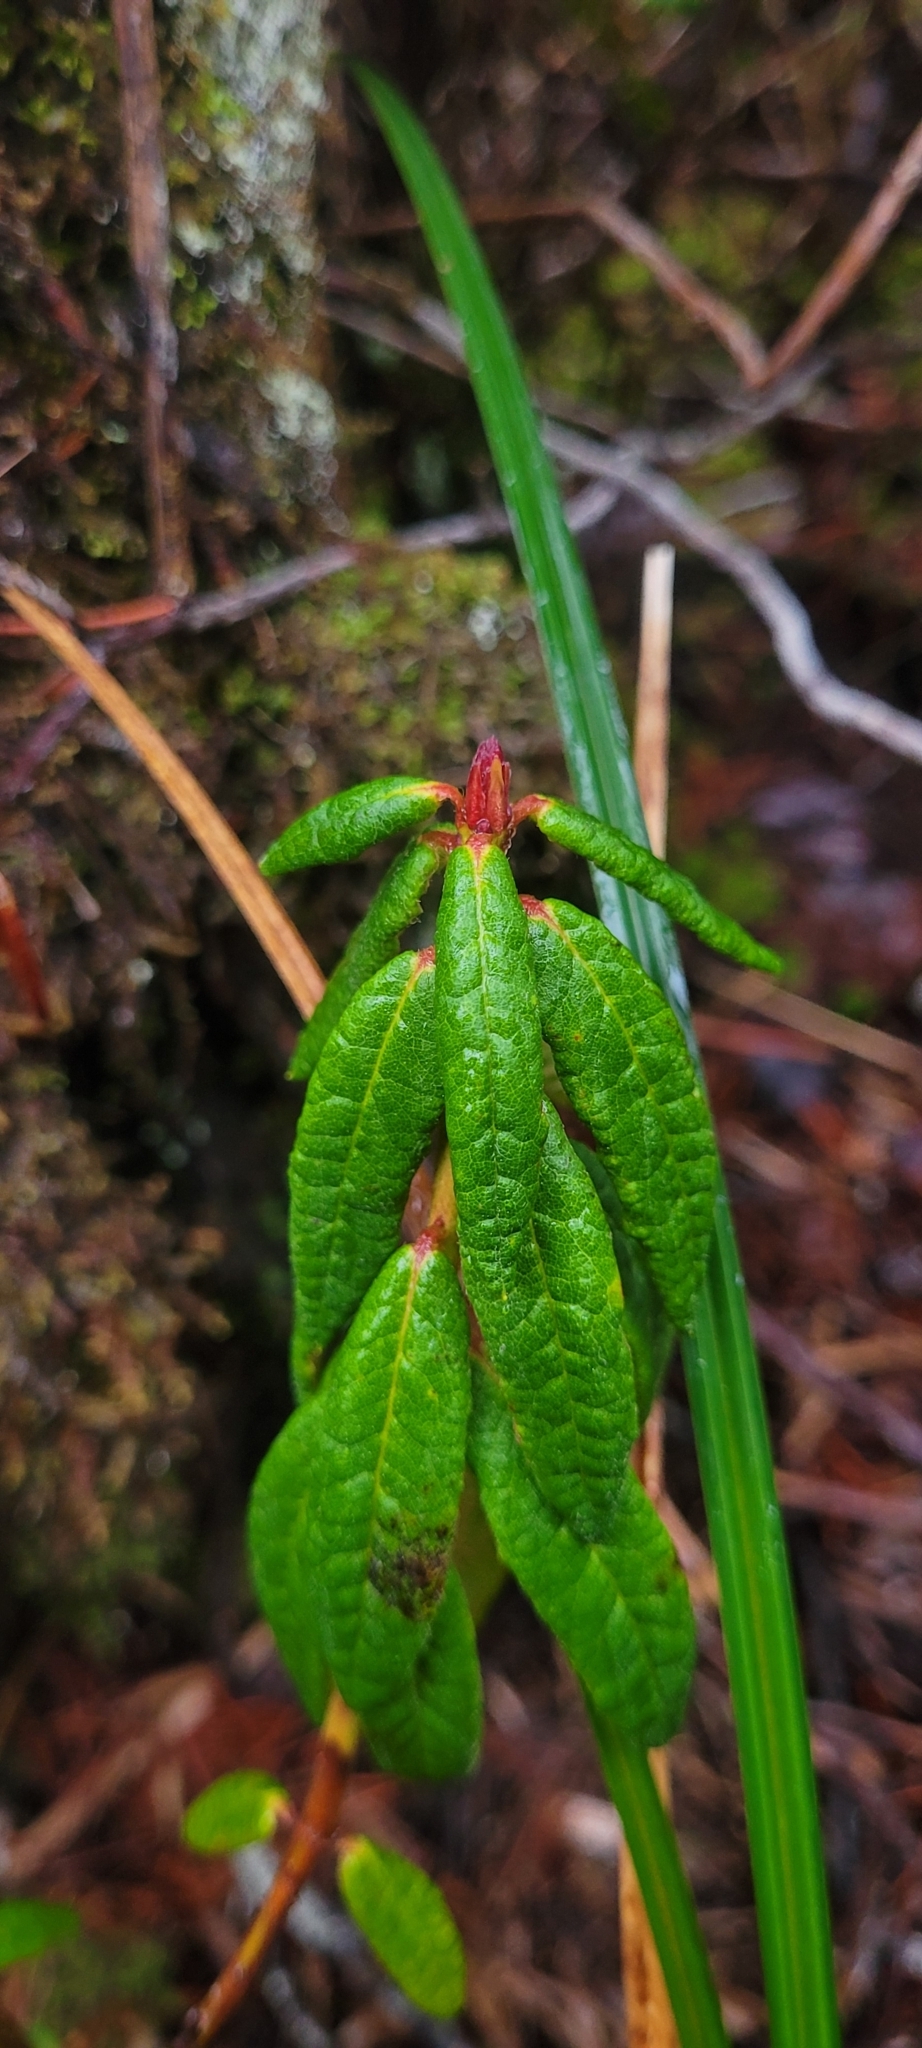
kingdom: Plantae
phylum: Tracheophyta
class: Magnoliopsida
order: Ericales
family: Ericaceae
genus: Rhododendron
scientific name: Rhododendron groenlandicum
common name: Bog labrador tea
